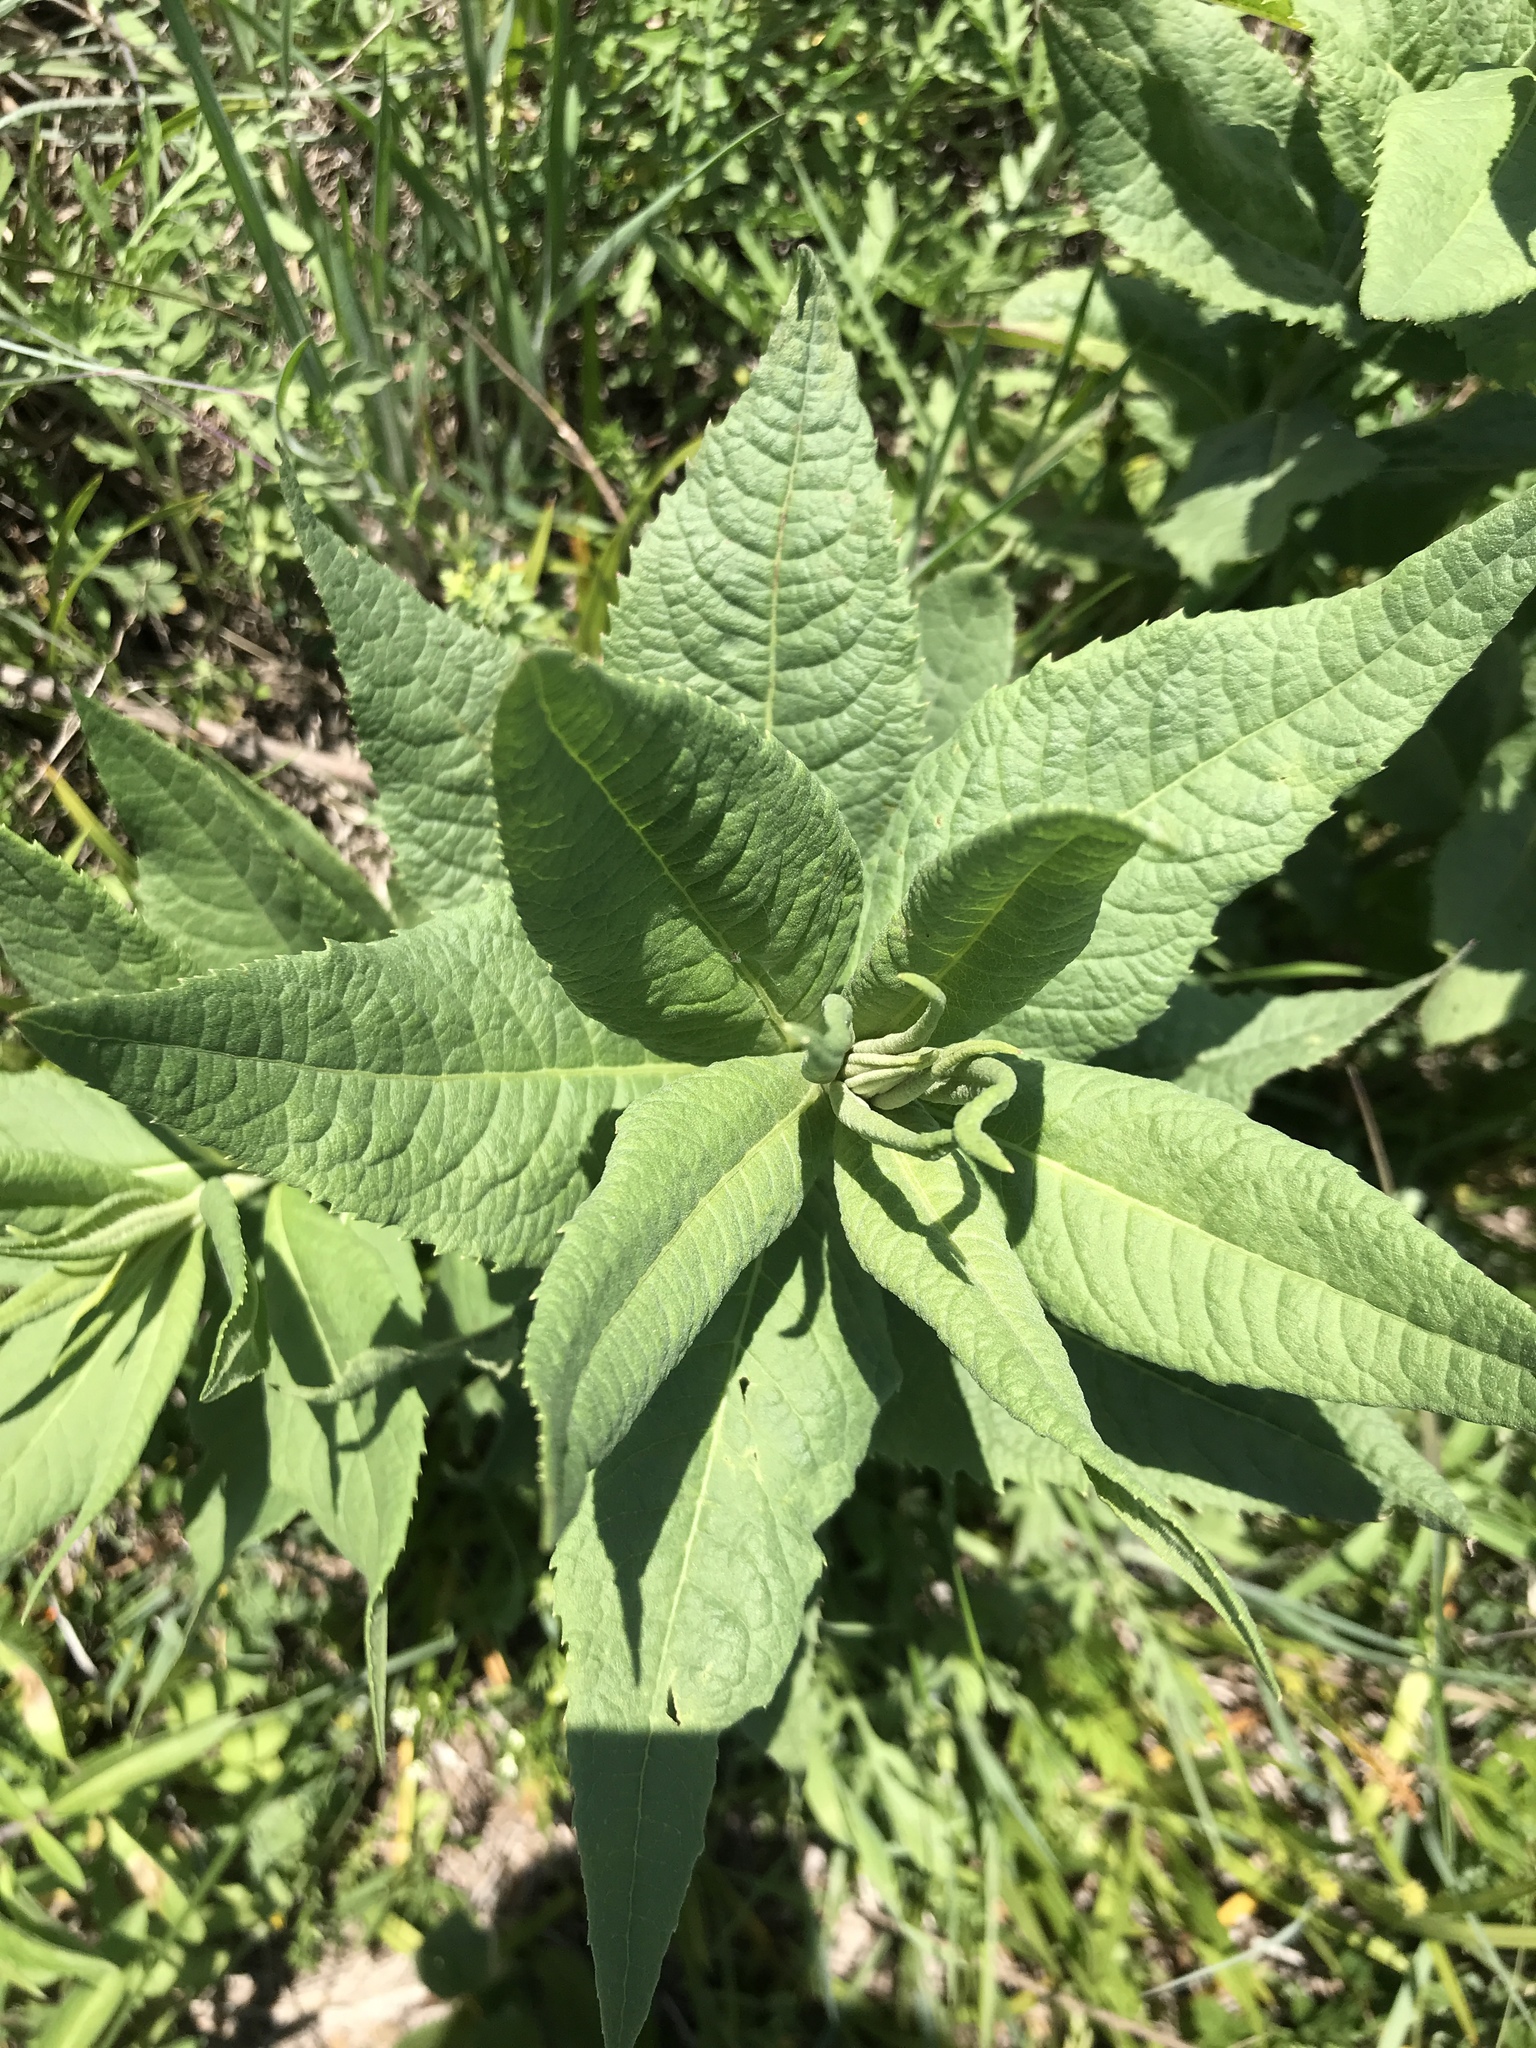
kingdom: Plantae
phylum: Tracheophyta
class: Magnoliopsida
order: Asterales
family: Asteraceae
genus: Vernonia
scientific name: Vernonia baldwinii
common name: Western ironweed
